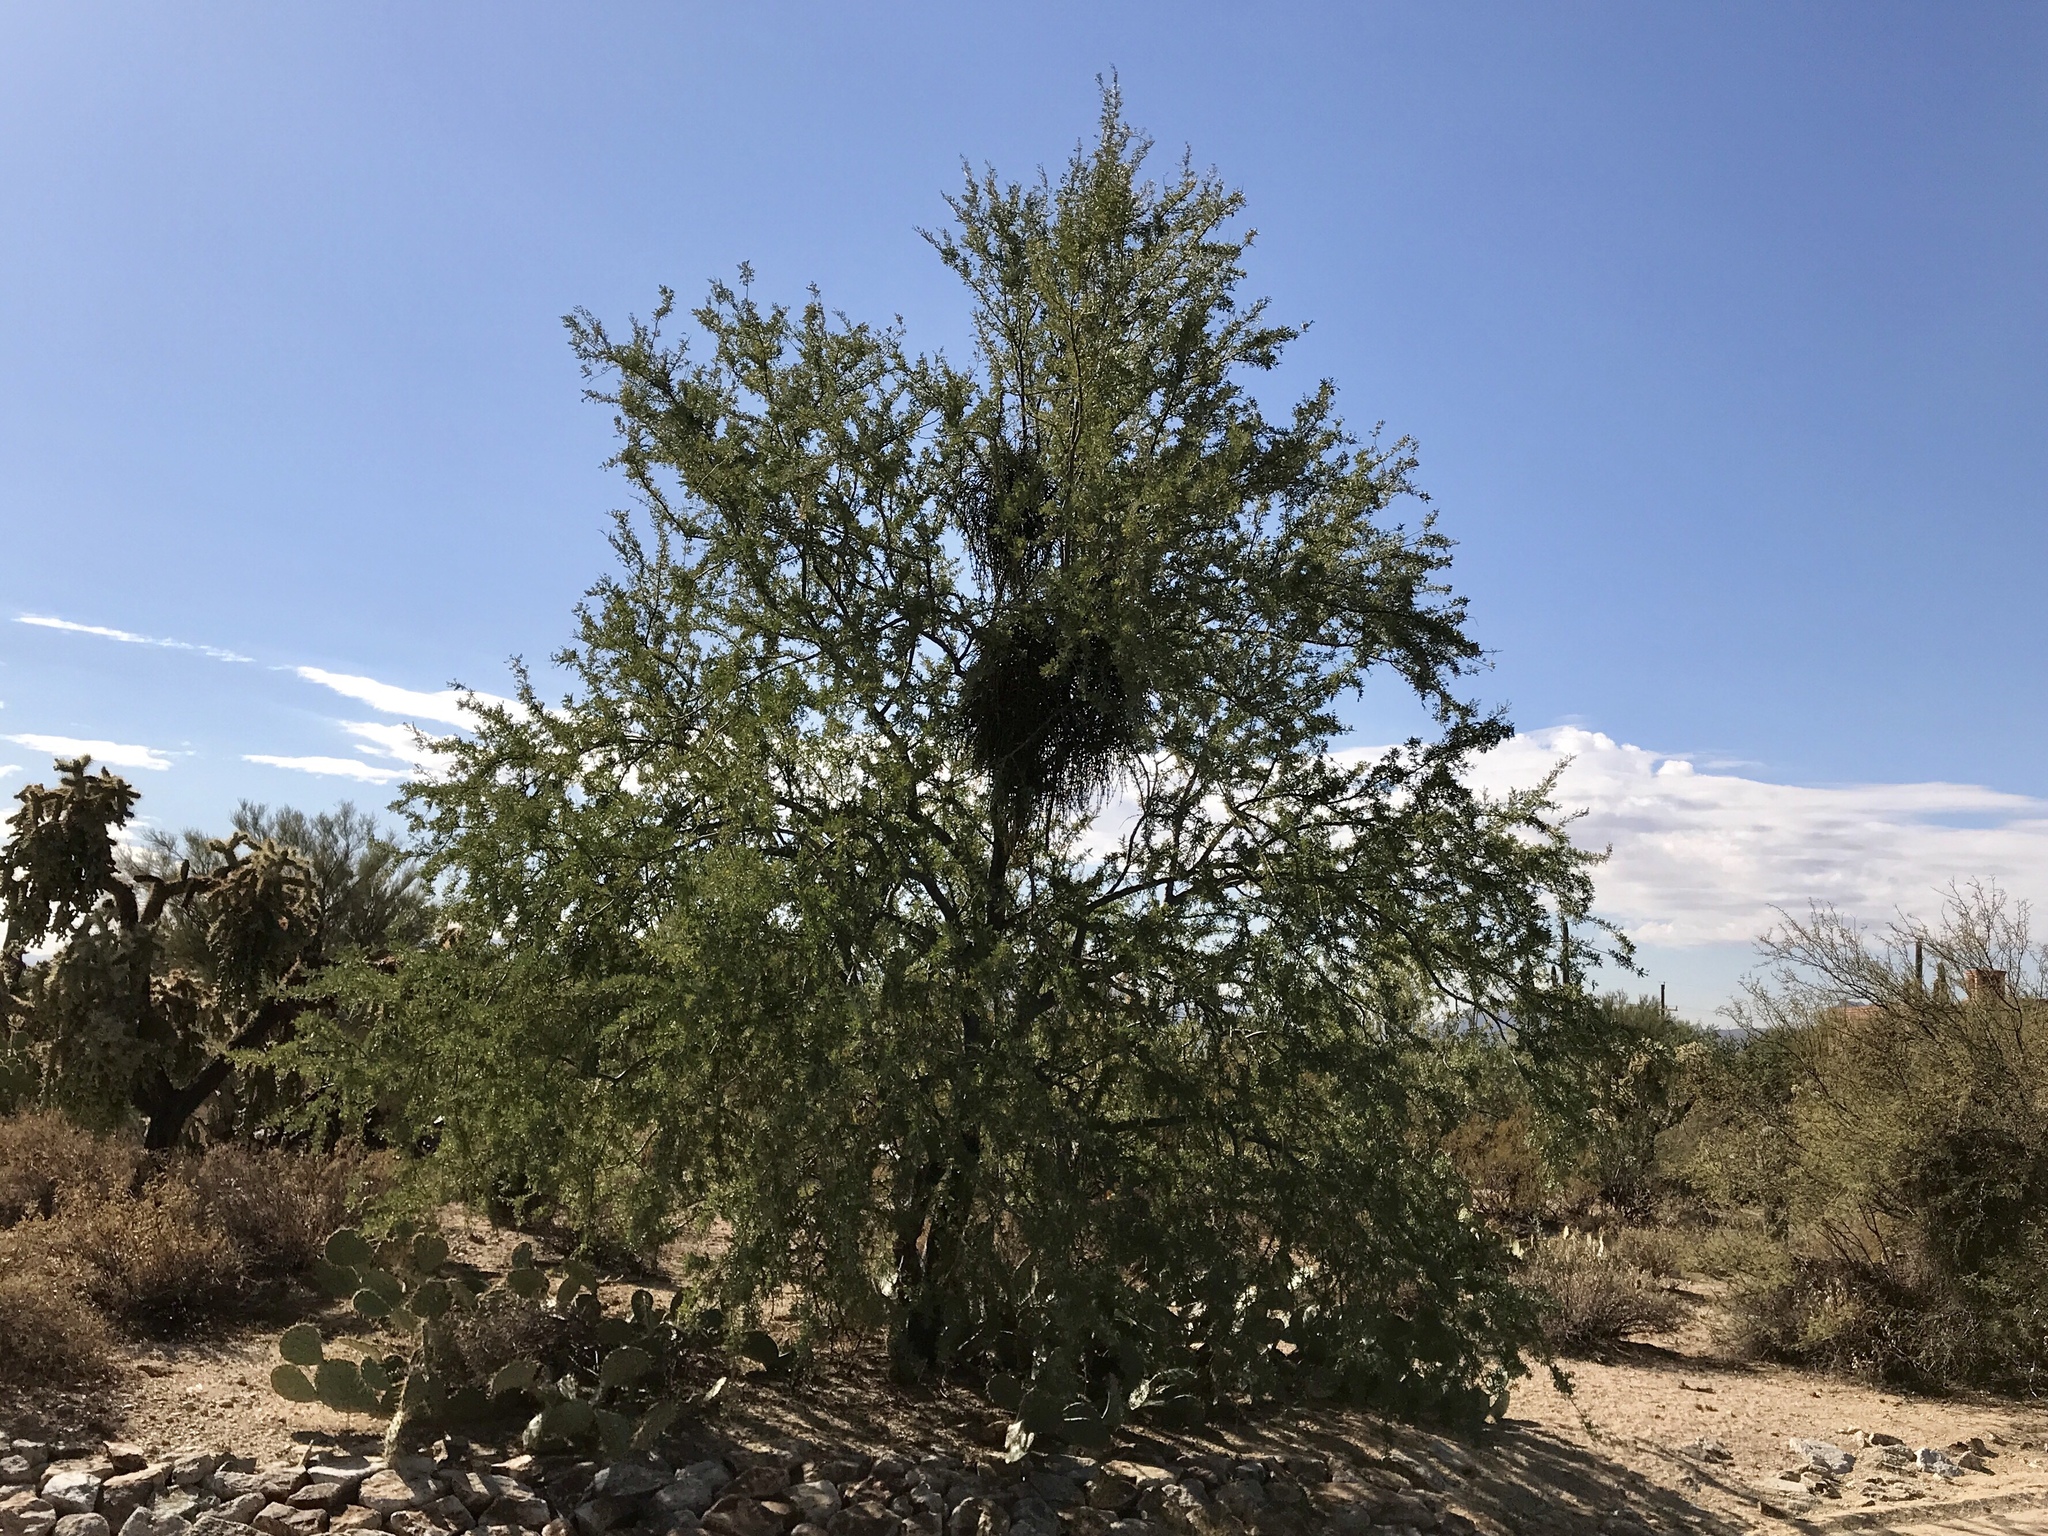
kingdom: Plantae
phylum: Tracheophyta
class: Magnoliopsida
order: Fabales
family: Fabaceae
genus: Olneya
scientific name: Olneya tesota
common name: Desert ironwood
